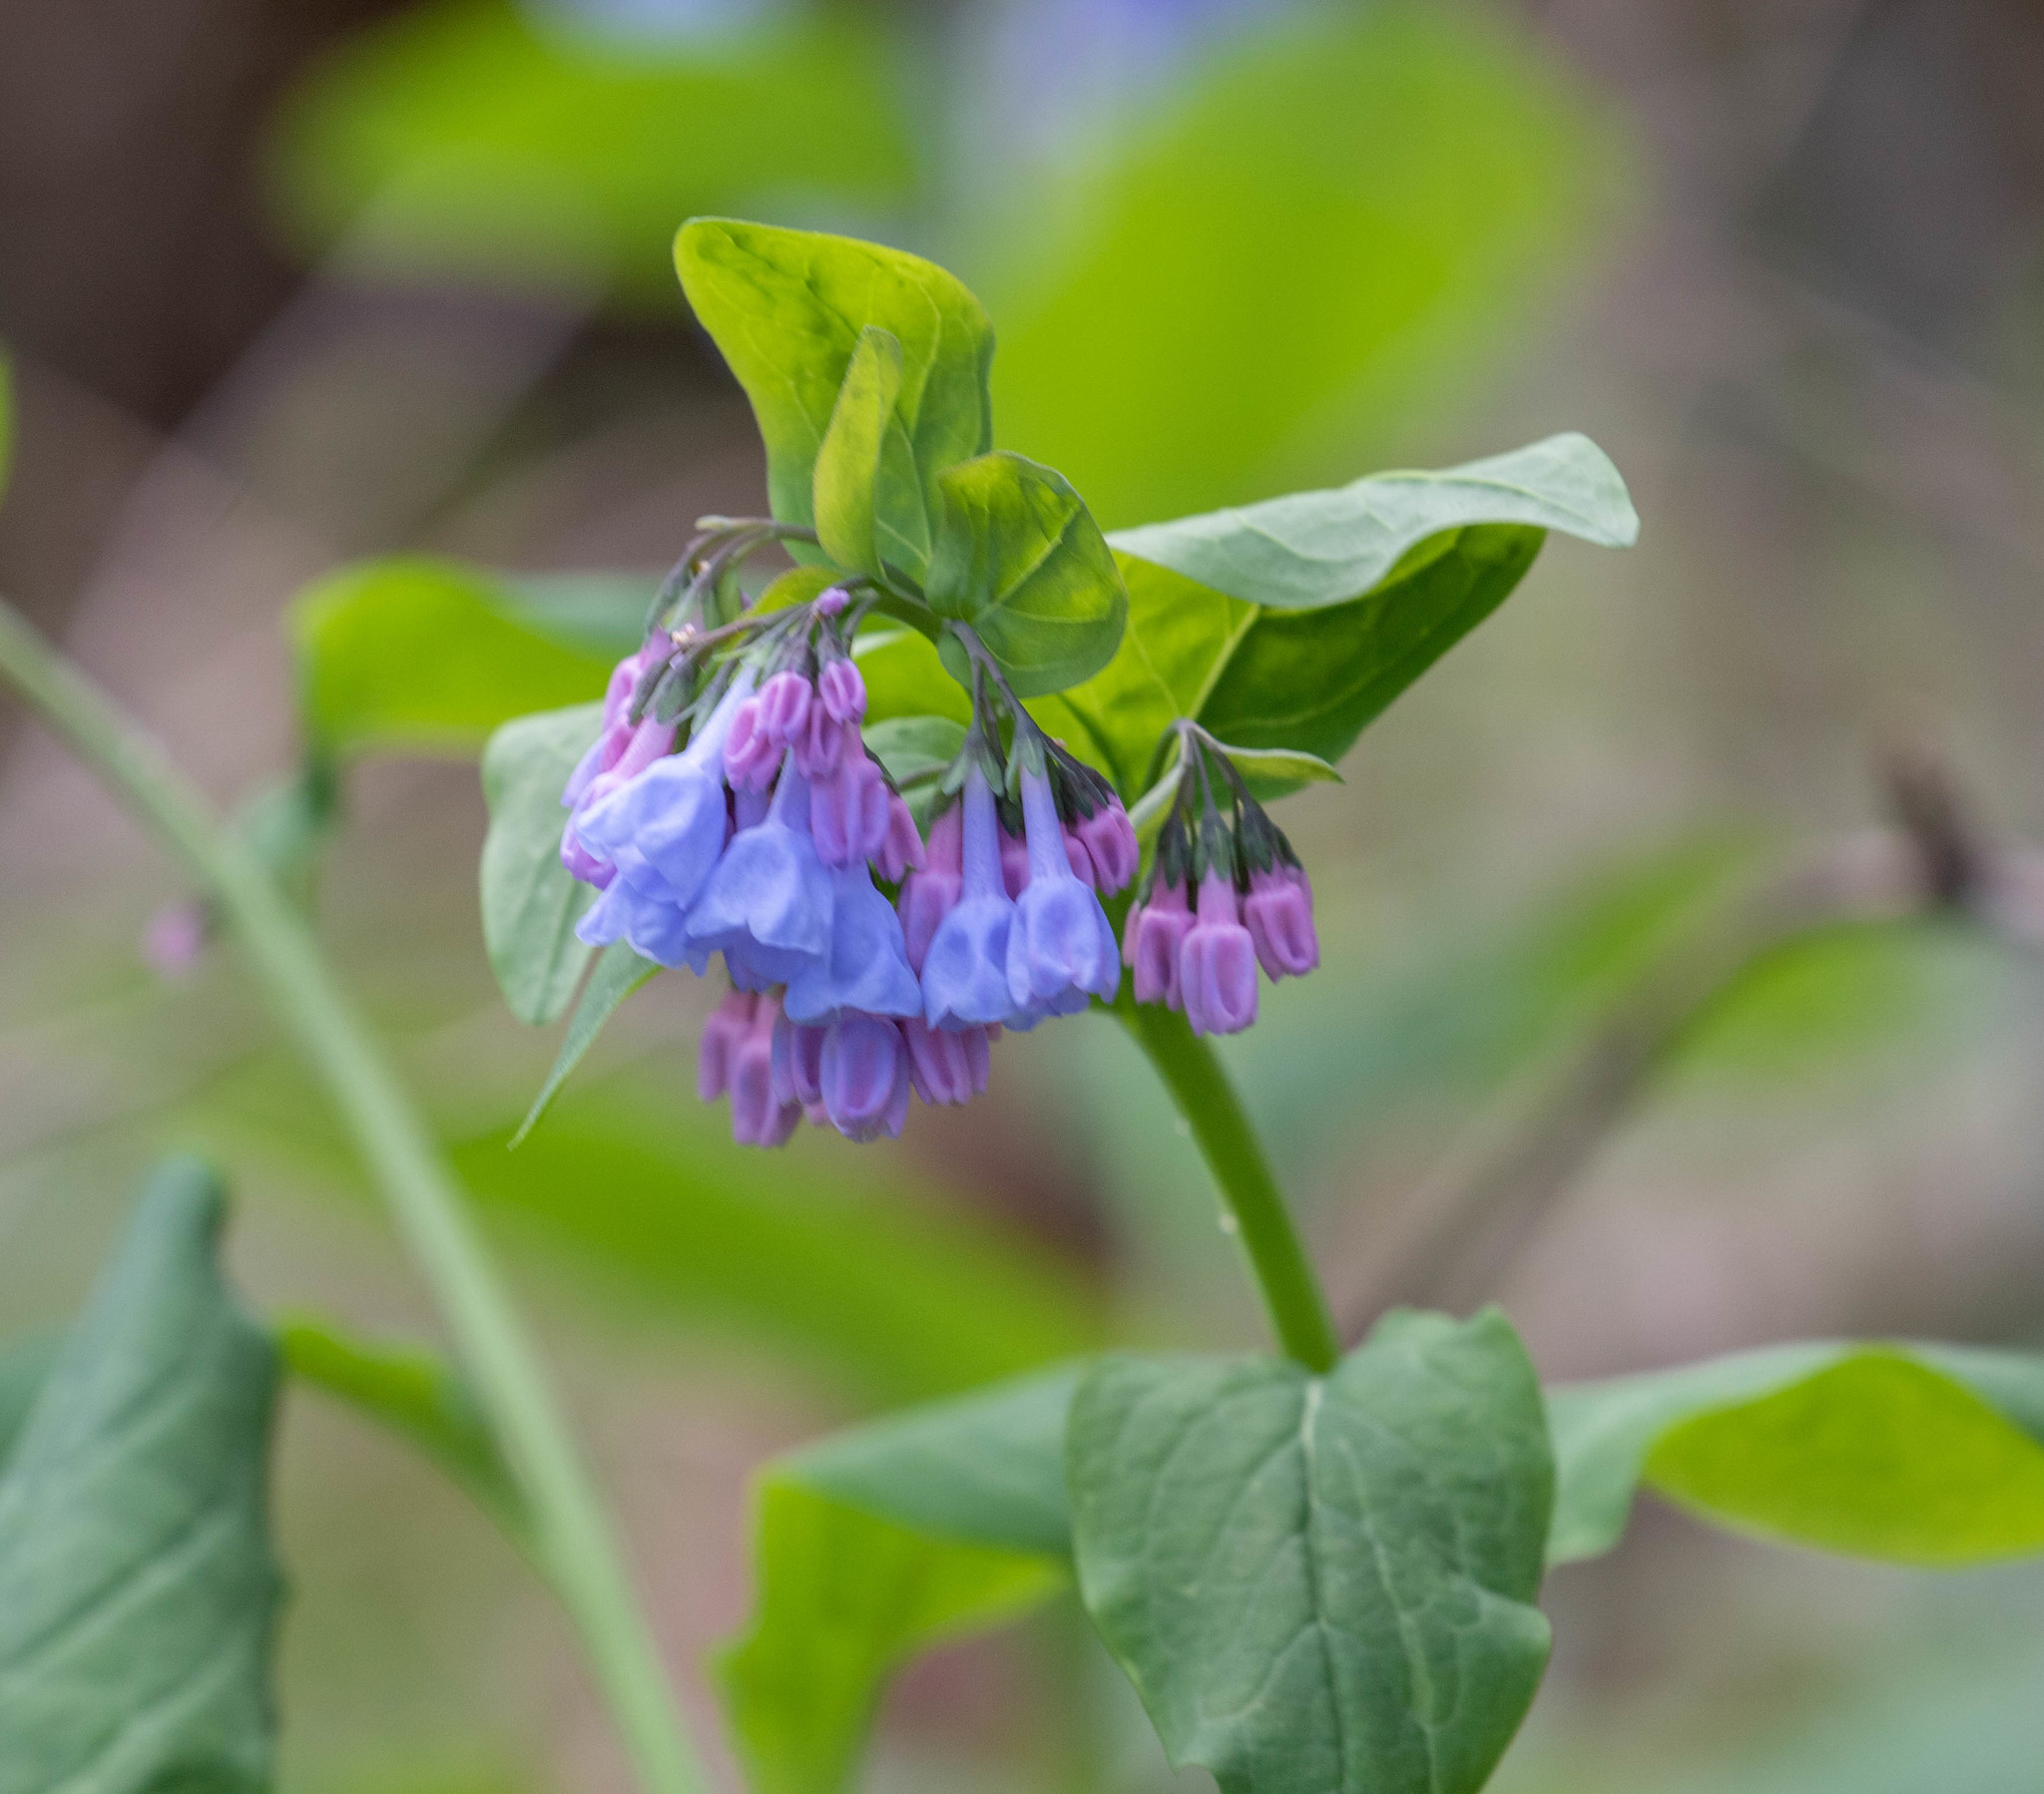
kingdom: Plantae
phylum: Tracheophyta
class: Magnoliopsida
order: Boraginales
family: Boraginaceae
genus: Mertensia
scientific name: Mertensia virginica
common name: Virginia bluebells
